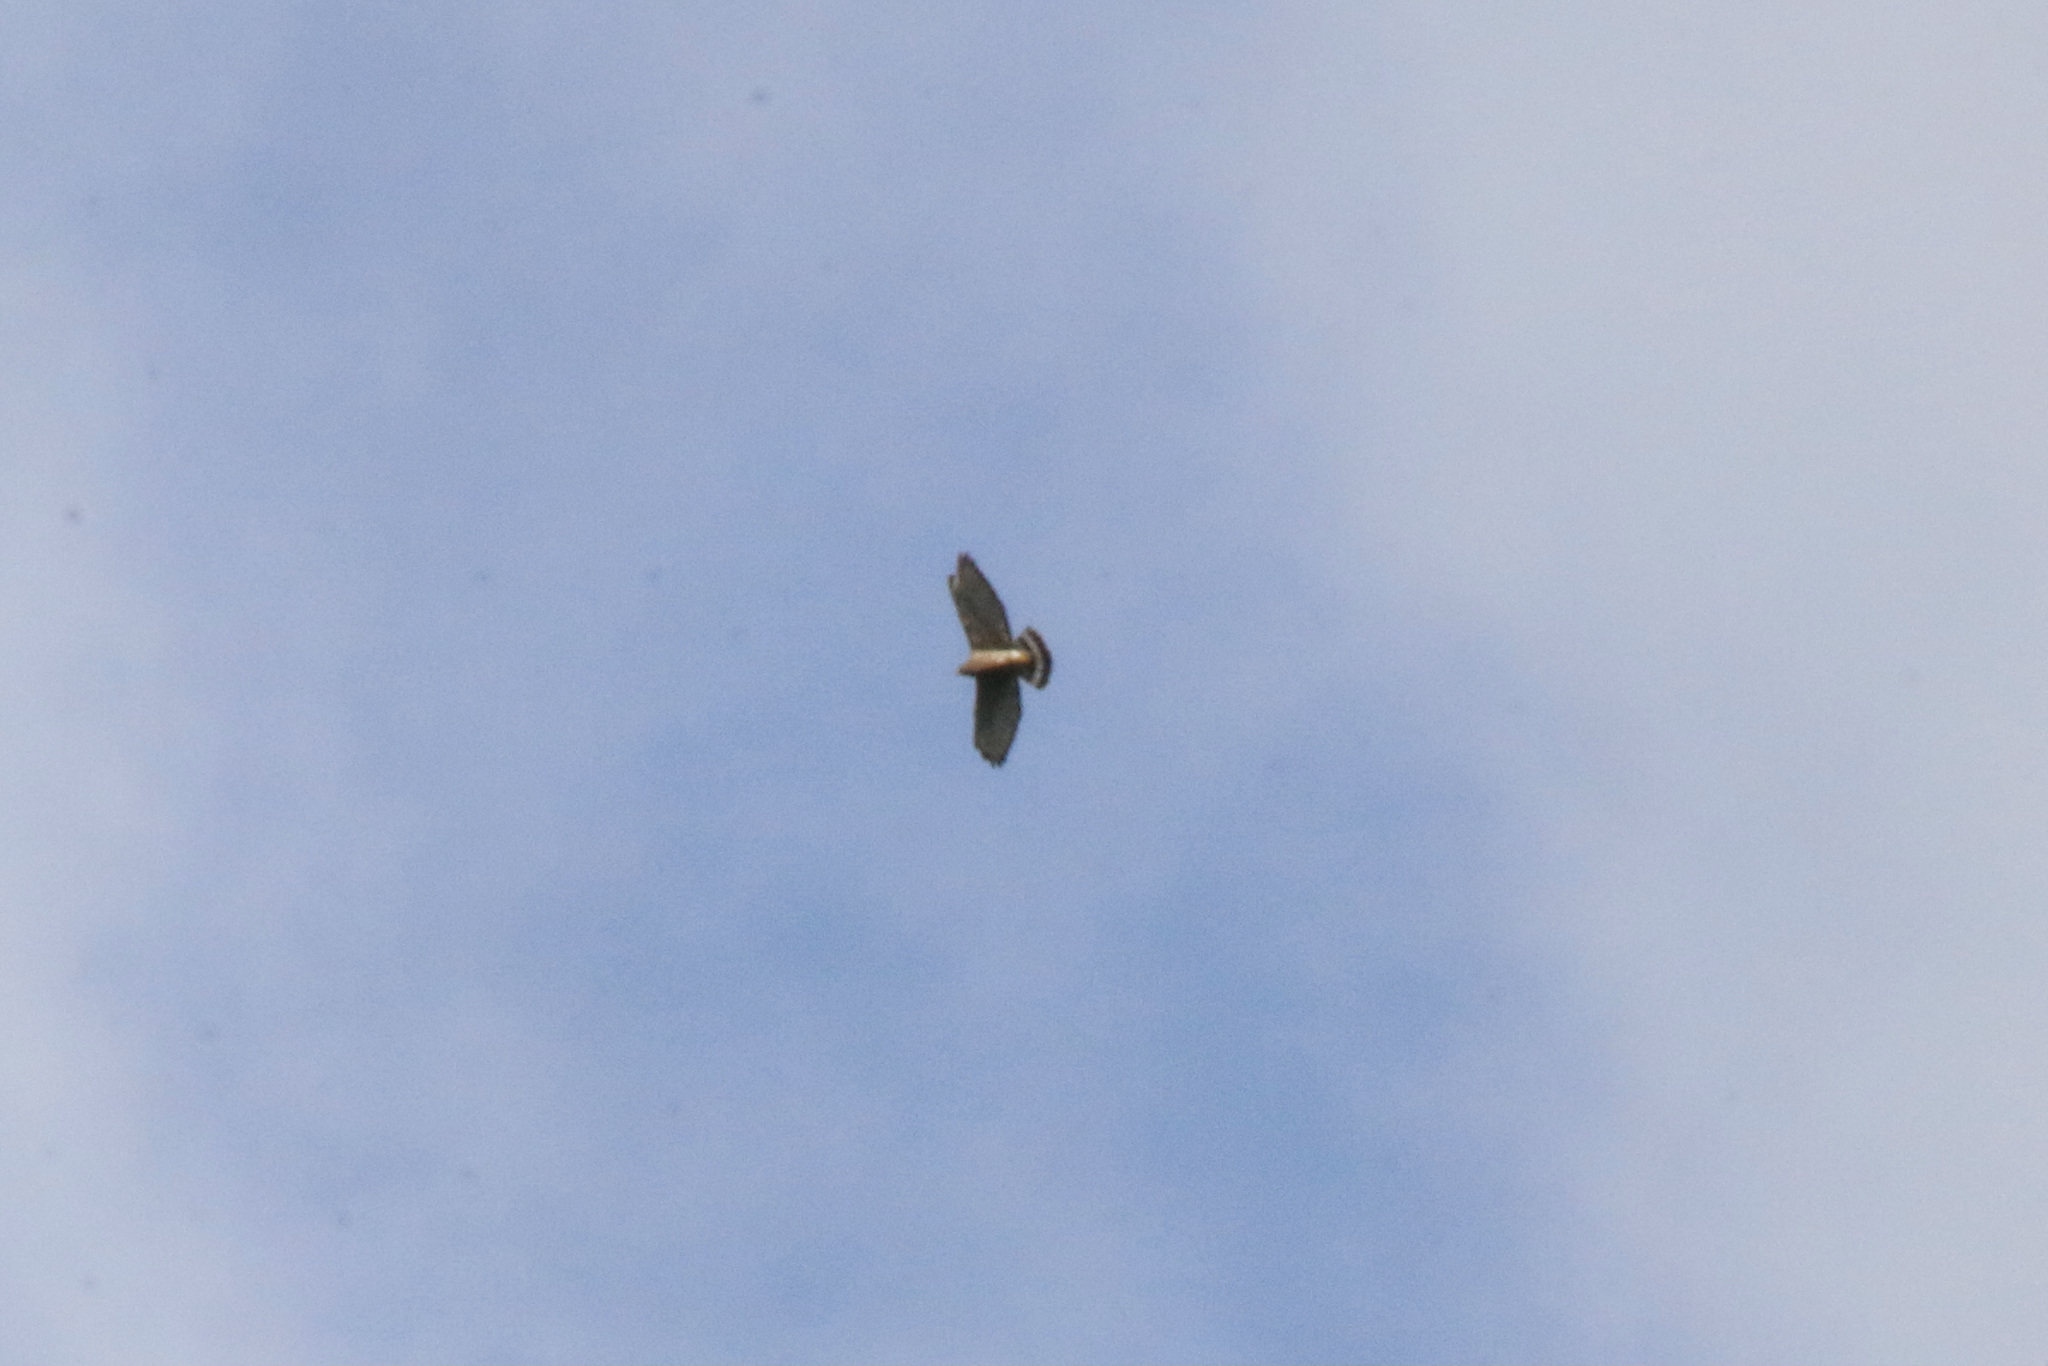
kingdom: Animalia
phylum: Chordata
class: Aves
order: Accipitriformes
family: Accipitridae
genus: Buteo
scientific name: Buteo platypterus
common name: Broad-winged hawk
